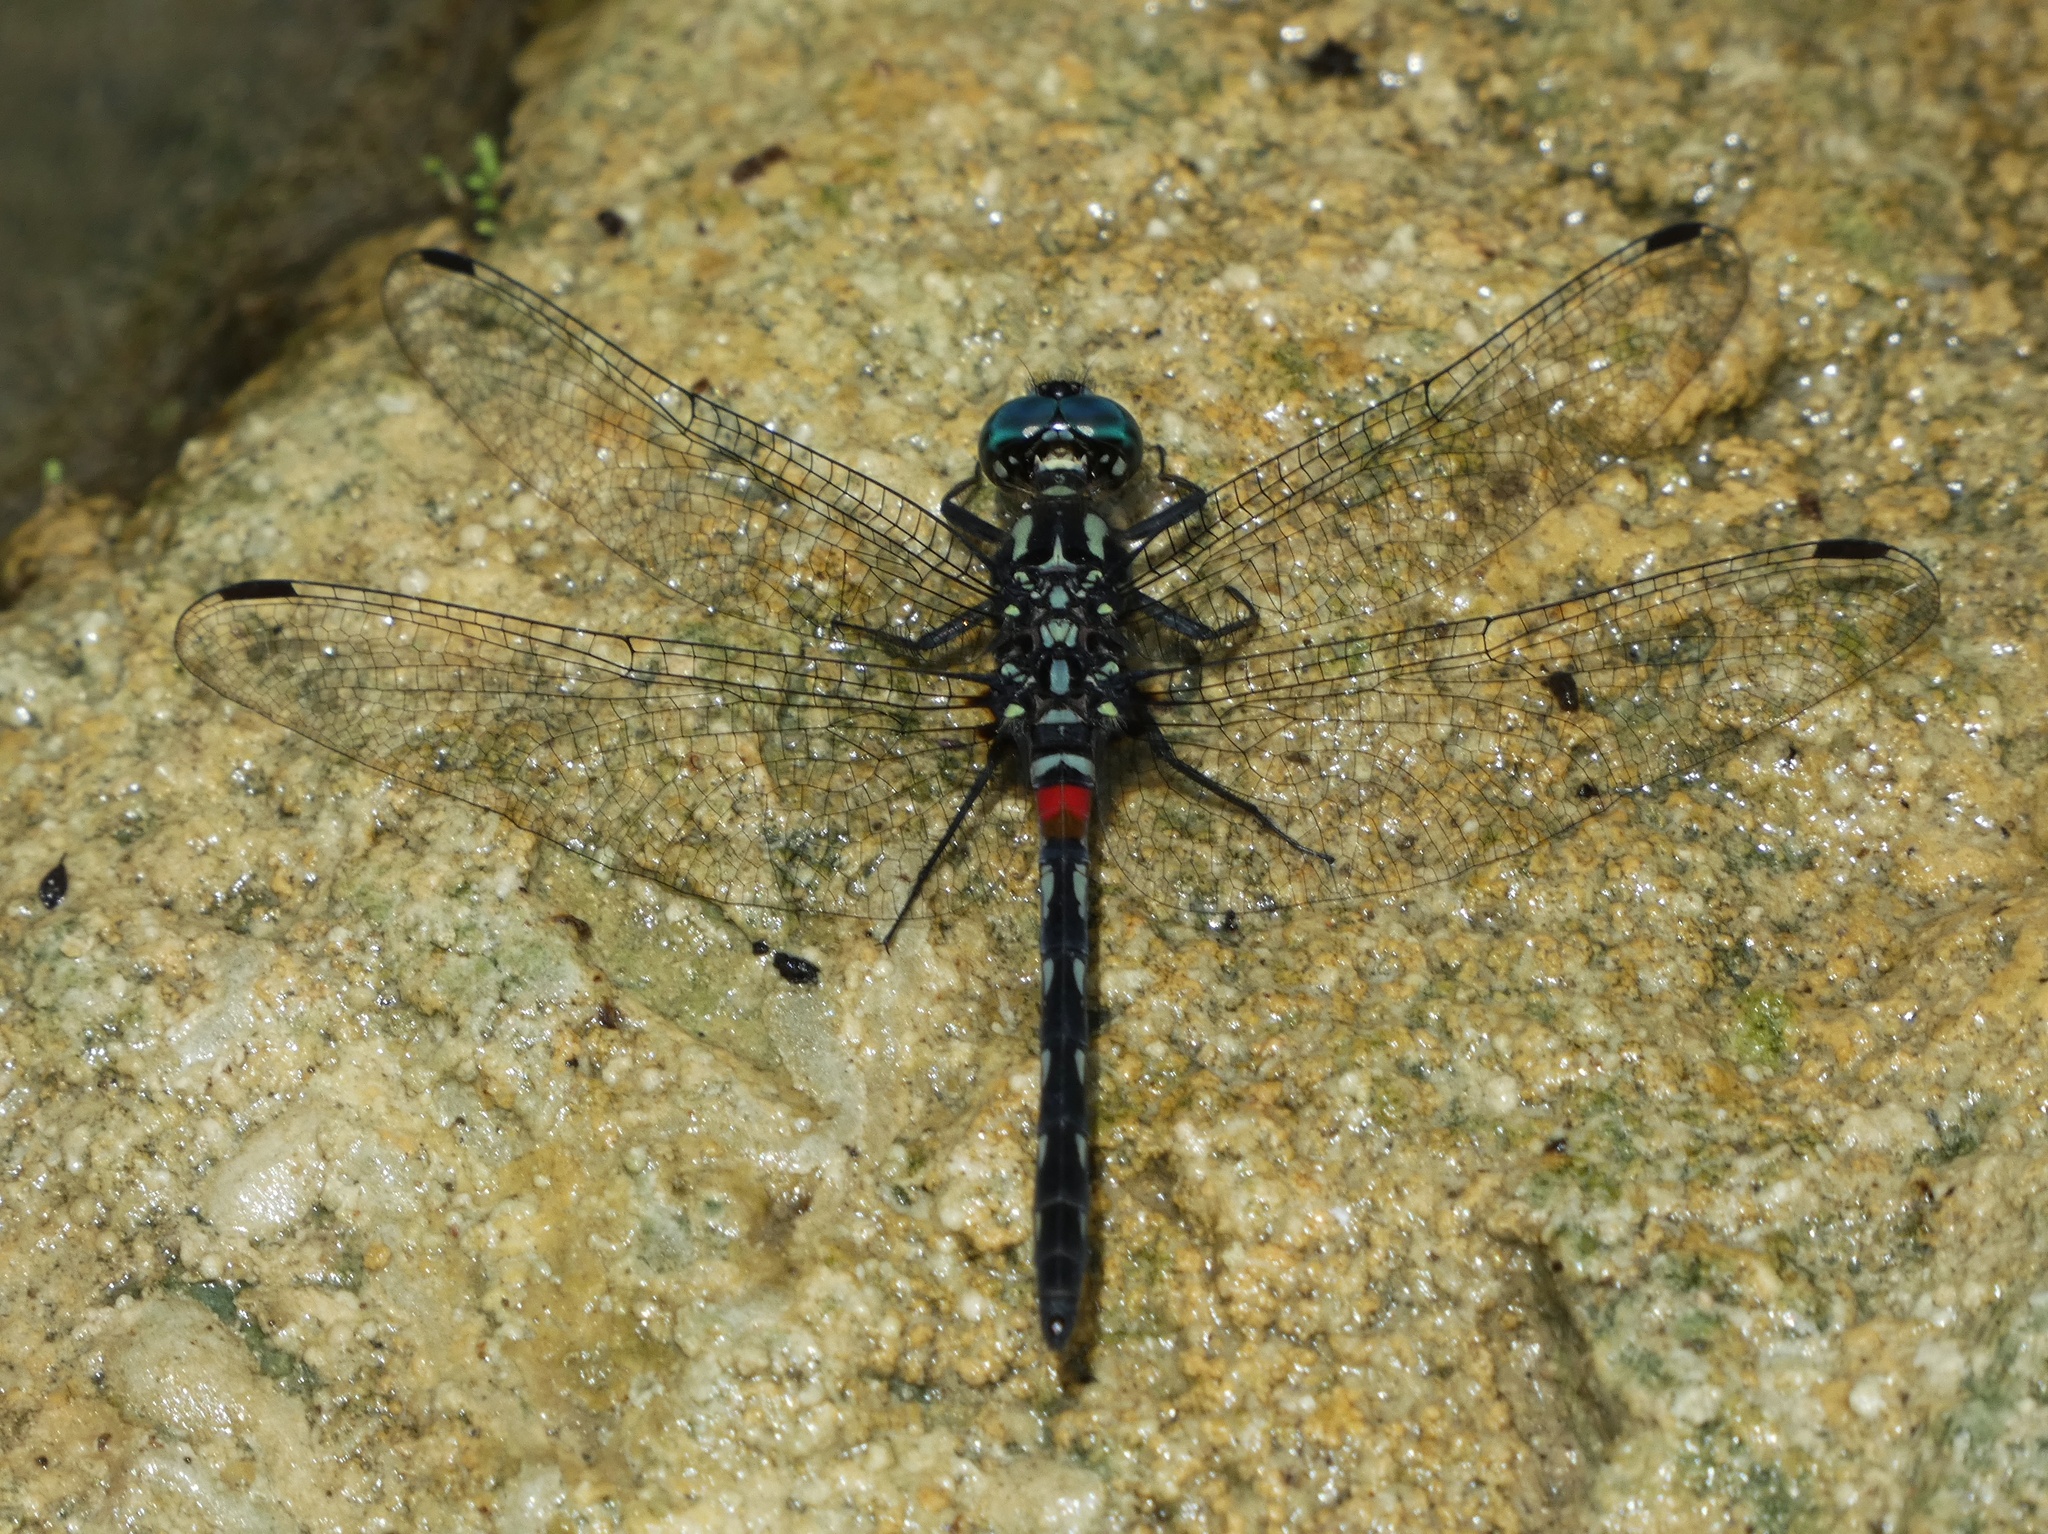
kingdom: Animalia
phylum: Arthropoda
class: Insecta
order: Odonata
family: Libellulidae
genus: Diplacina
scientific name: Diplacina bolivari
